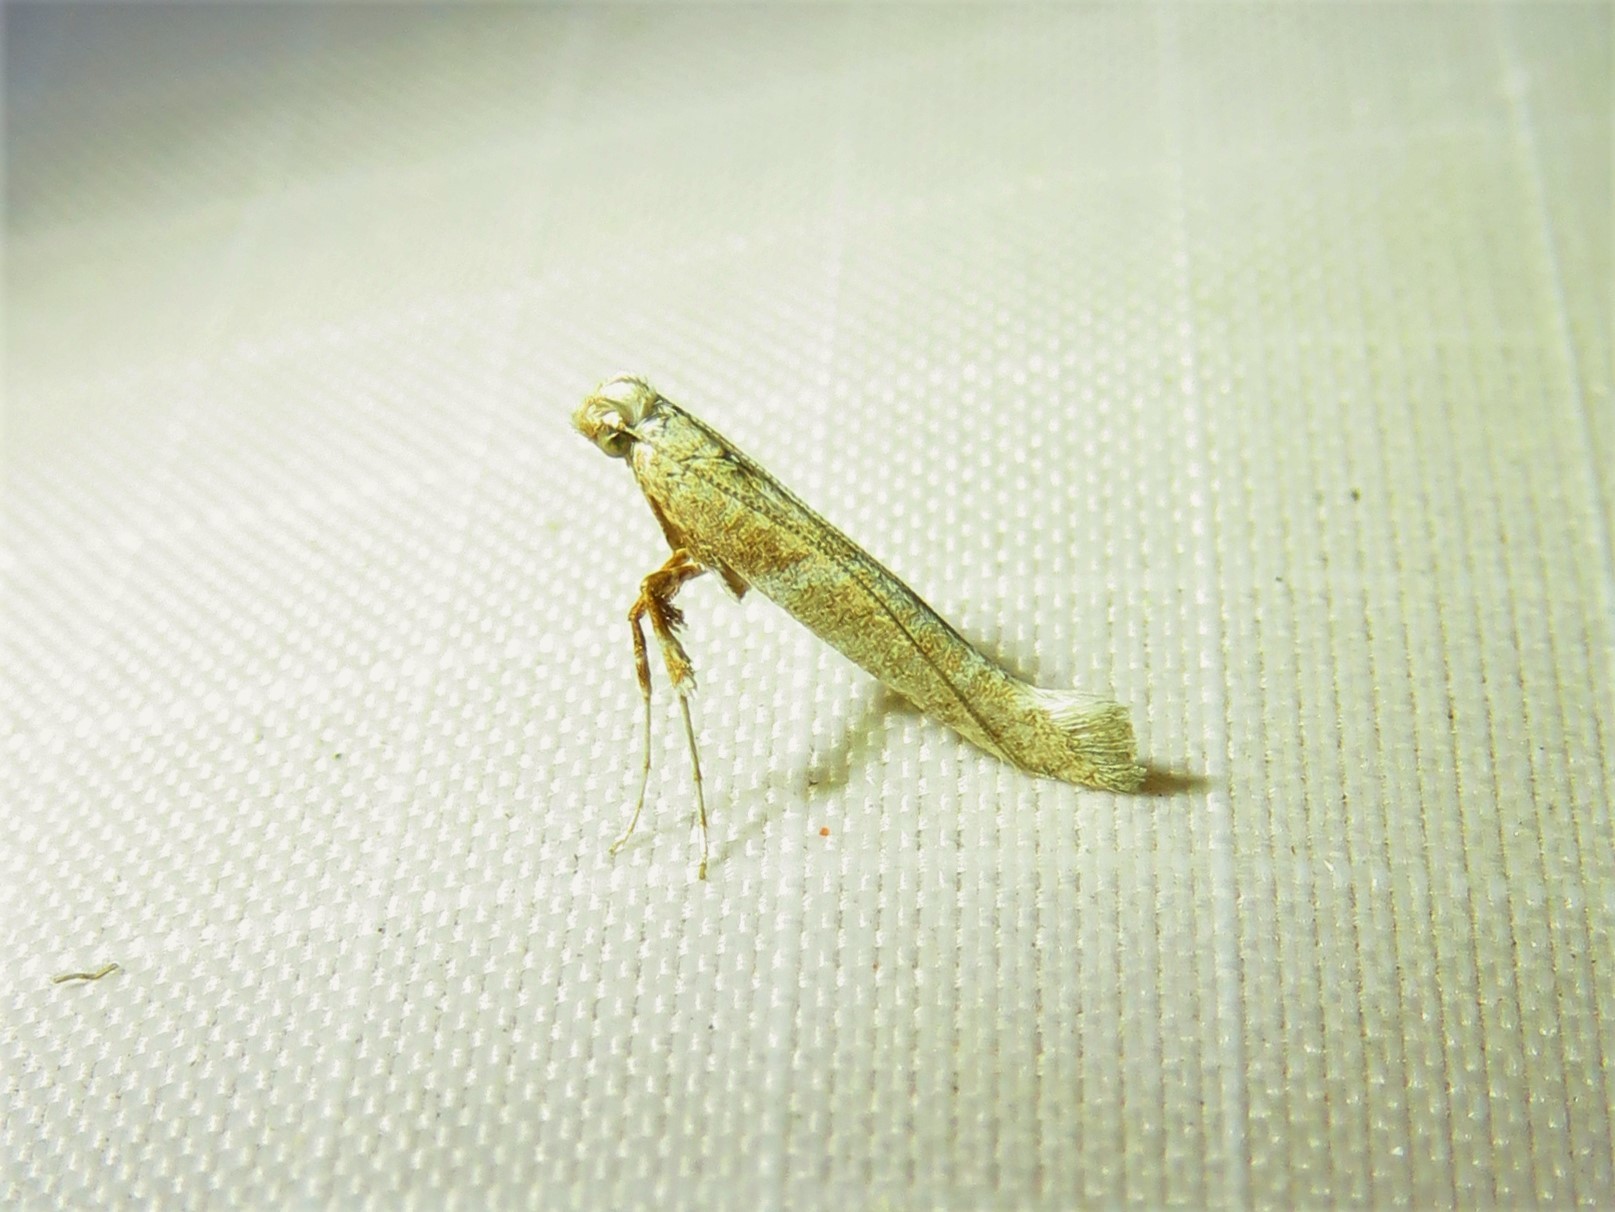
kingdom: Animalia
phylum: Arthropoda
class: Insecta
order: Lepidoptera
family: Gracillariidae
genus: Povolnya
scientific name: Povolnya quercinigrella
